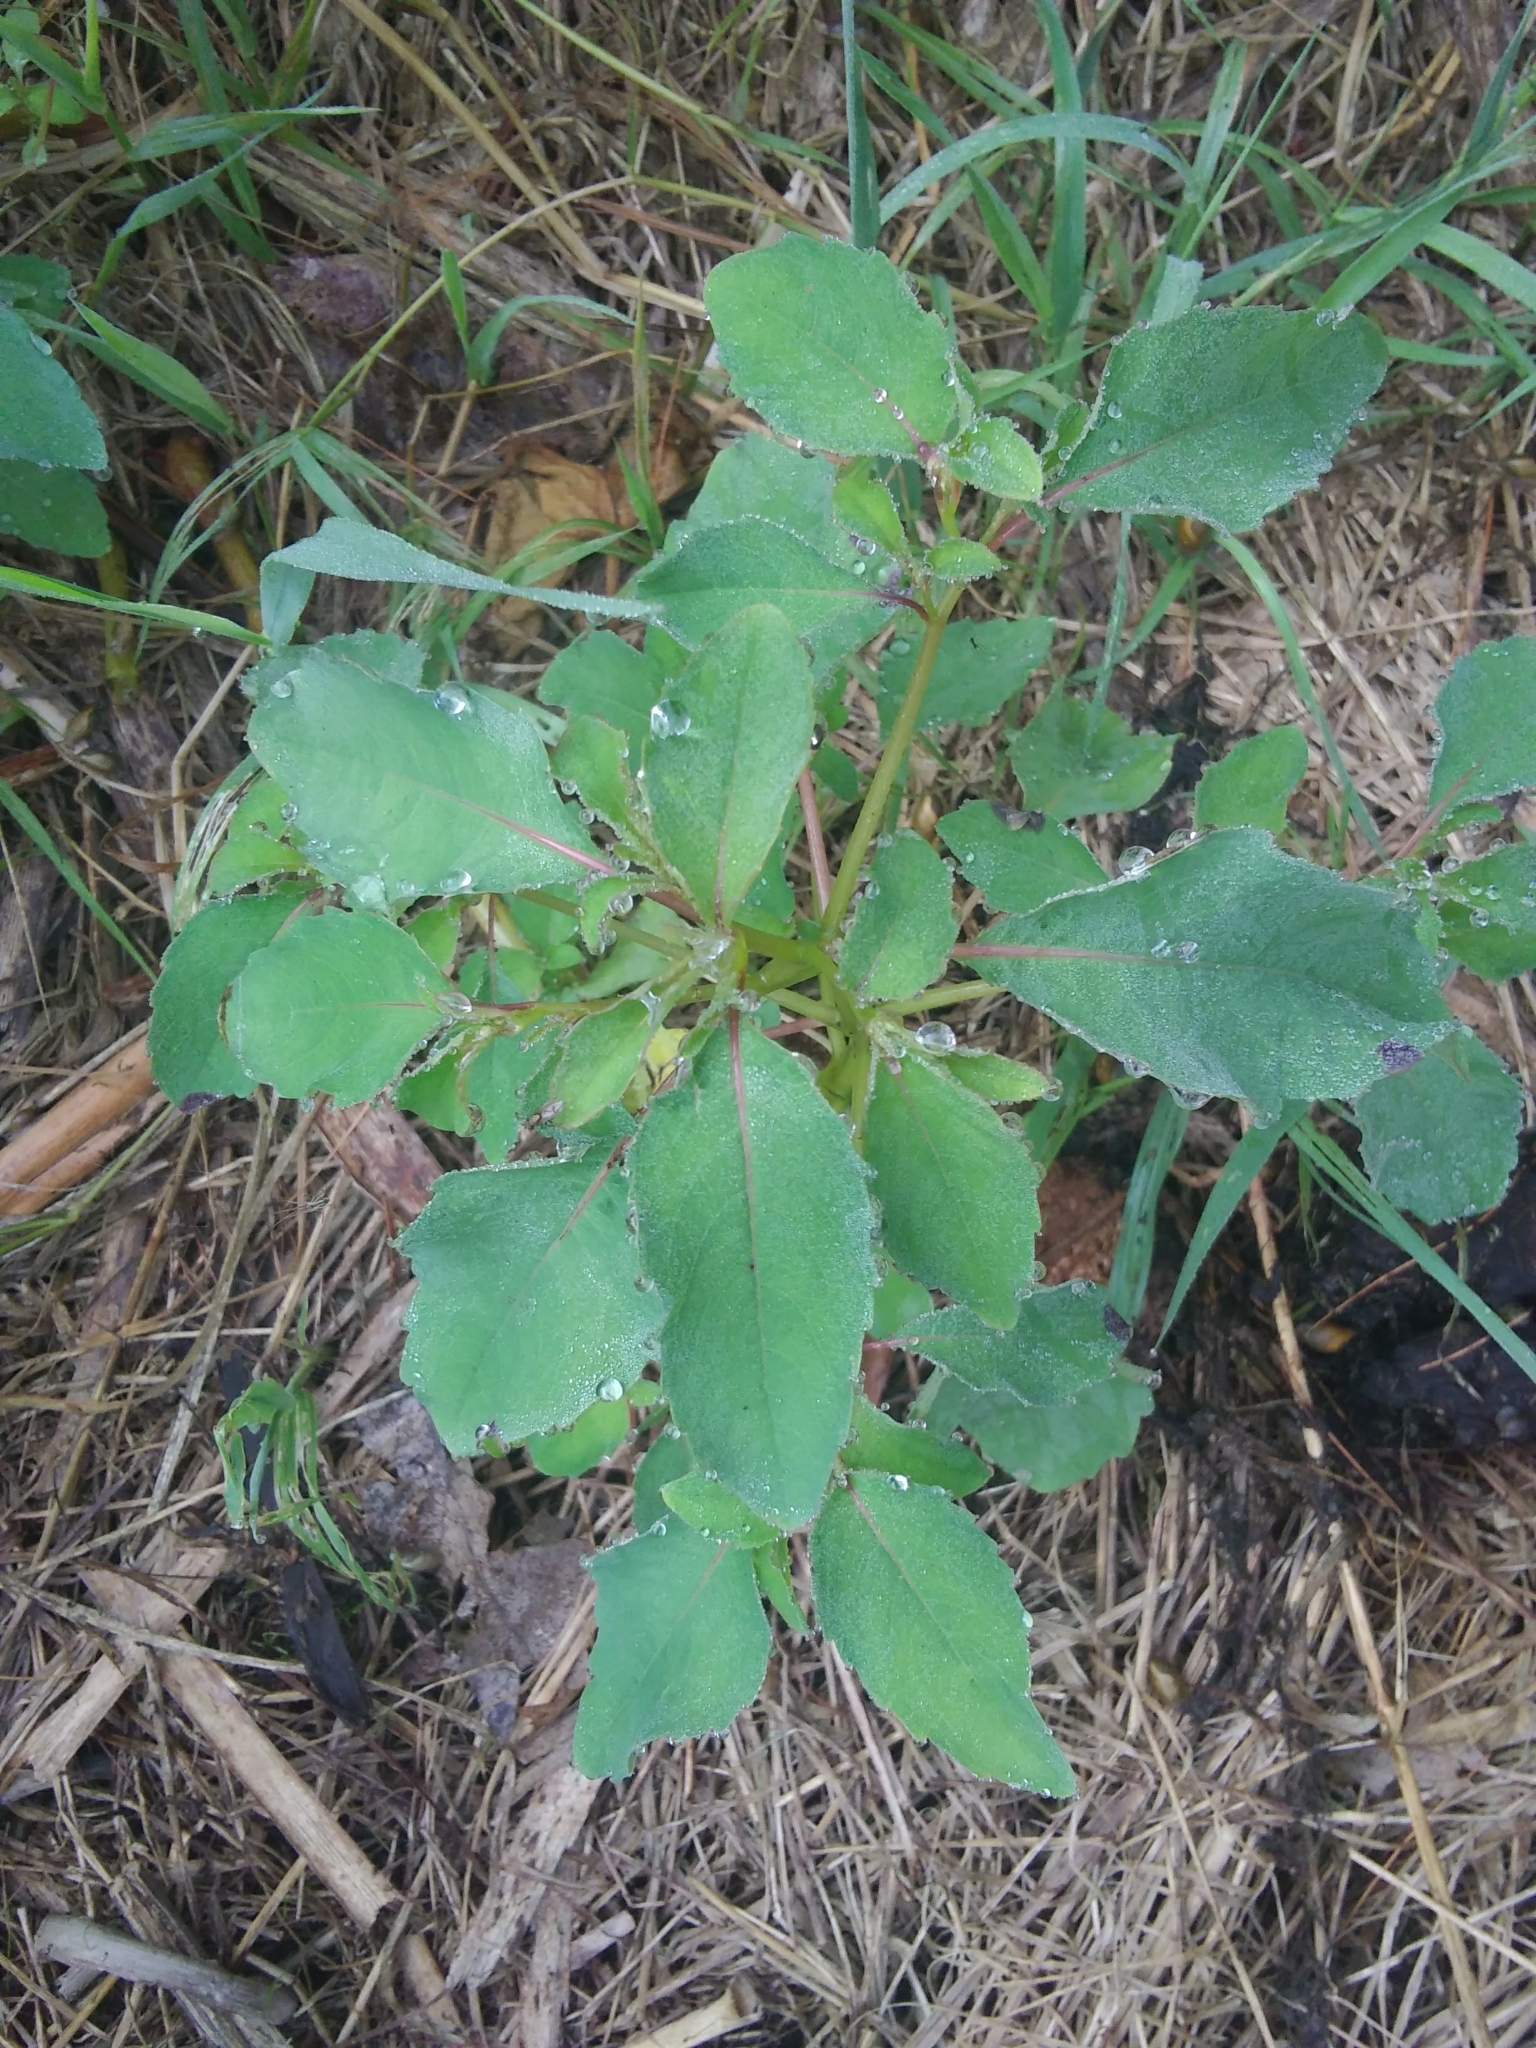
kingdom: Plantae
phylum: Tracheophyta
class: Magnoliopsida
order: Ericales
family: Balsaminaceae
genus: Impatiens
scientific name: Impatiens
